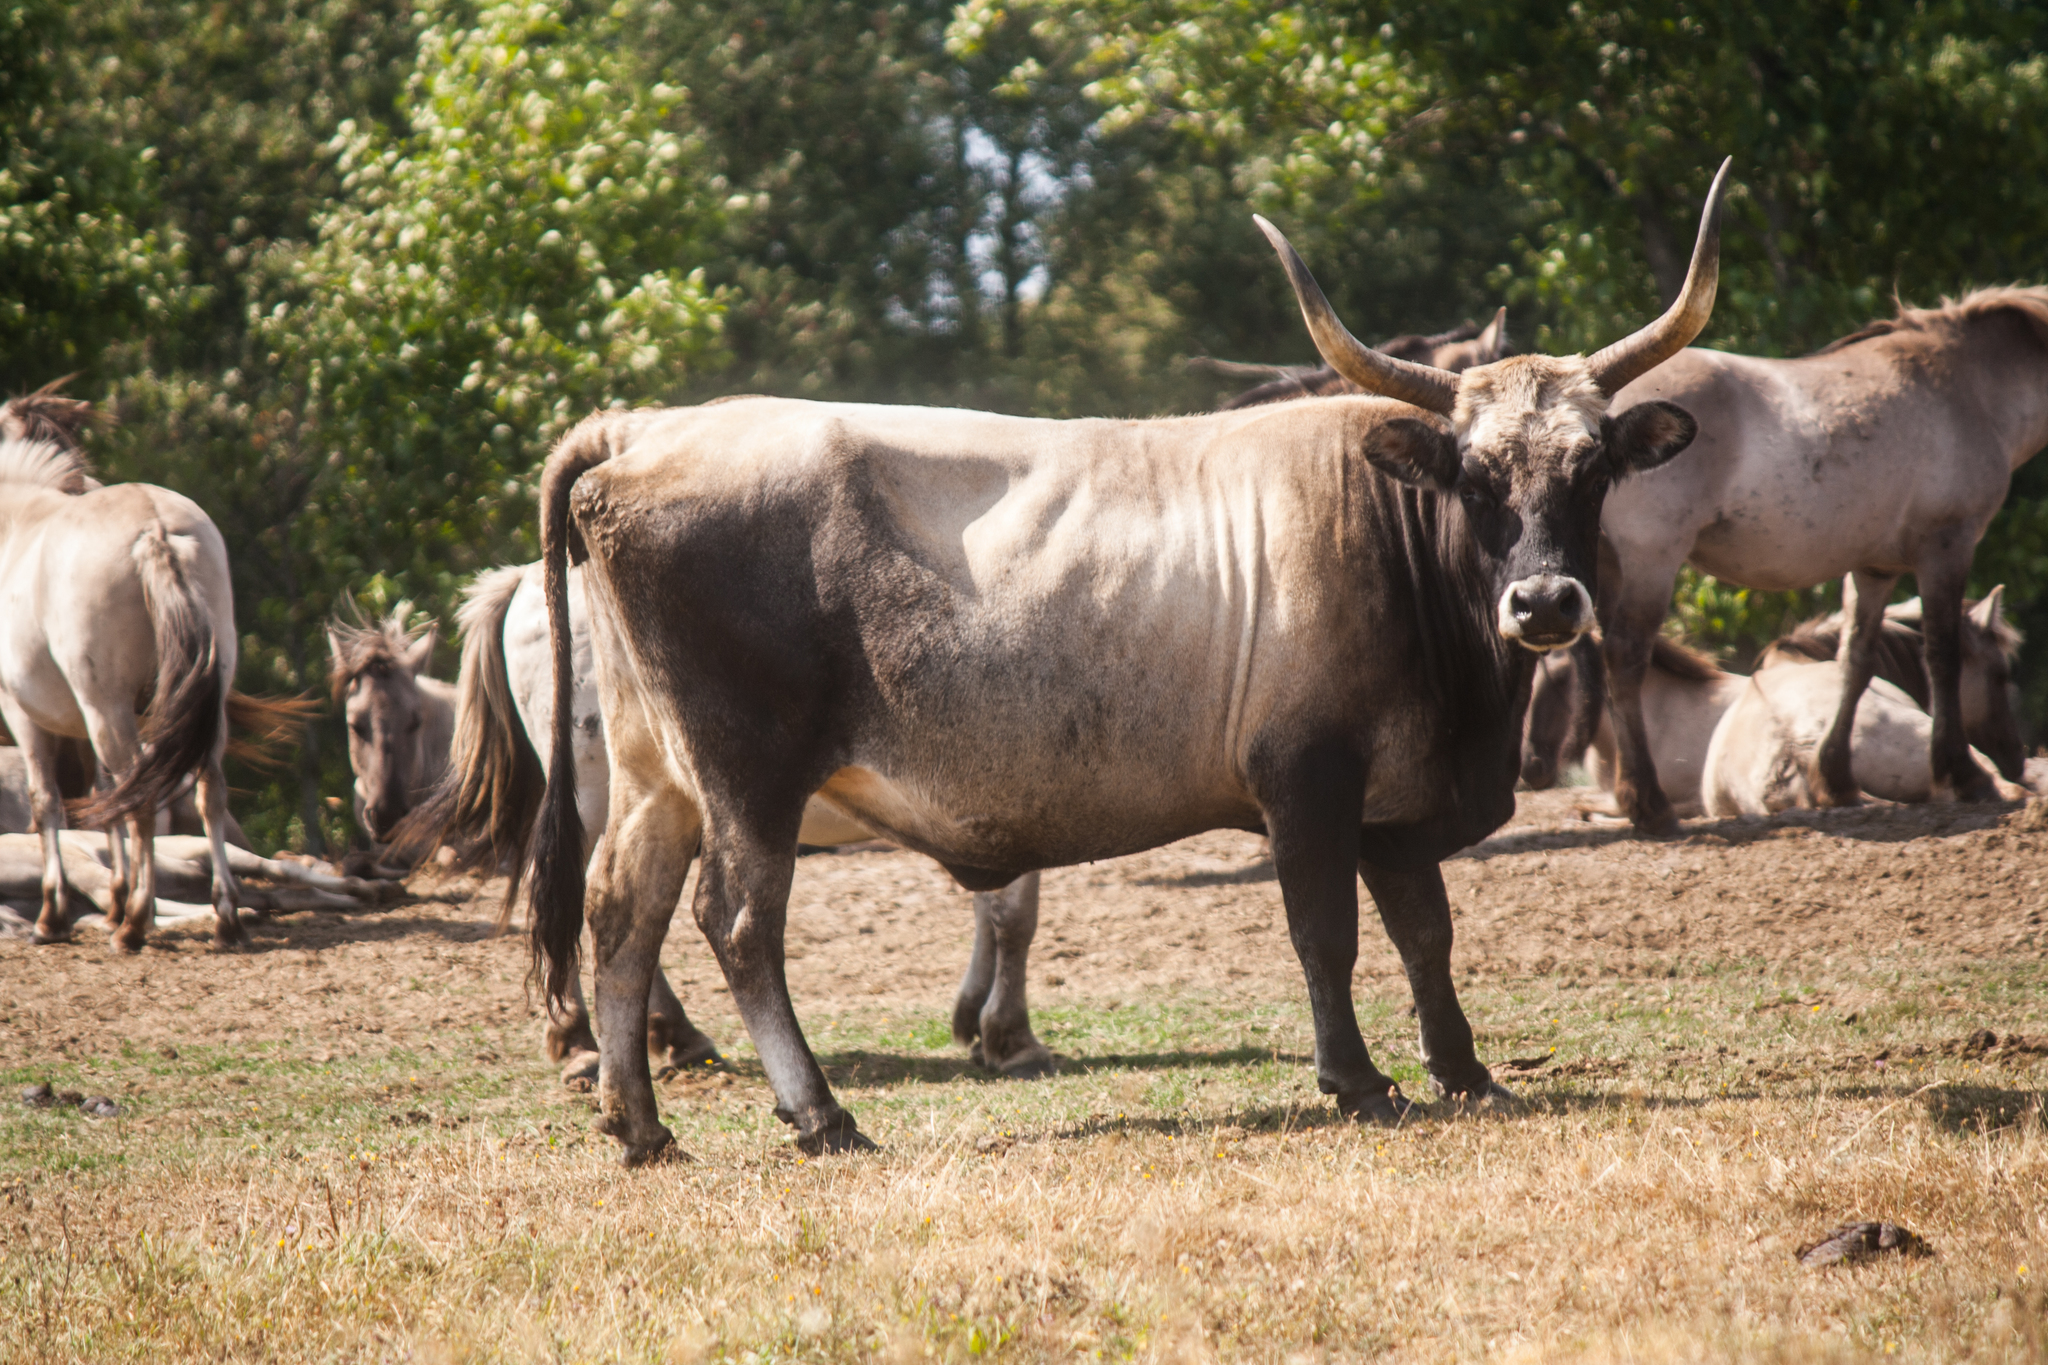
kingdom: Animalia
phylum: Chordata
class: Mammalia
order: Artiodactyla
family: Bovidae
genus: Bos
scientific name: Bos taurus
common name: Domesticated cattle
